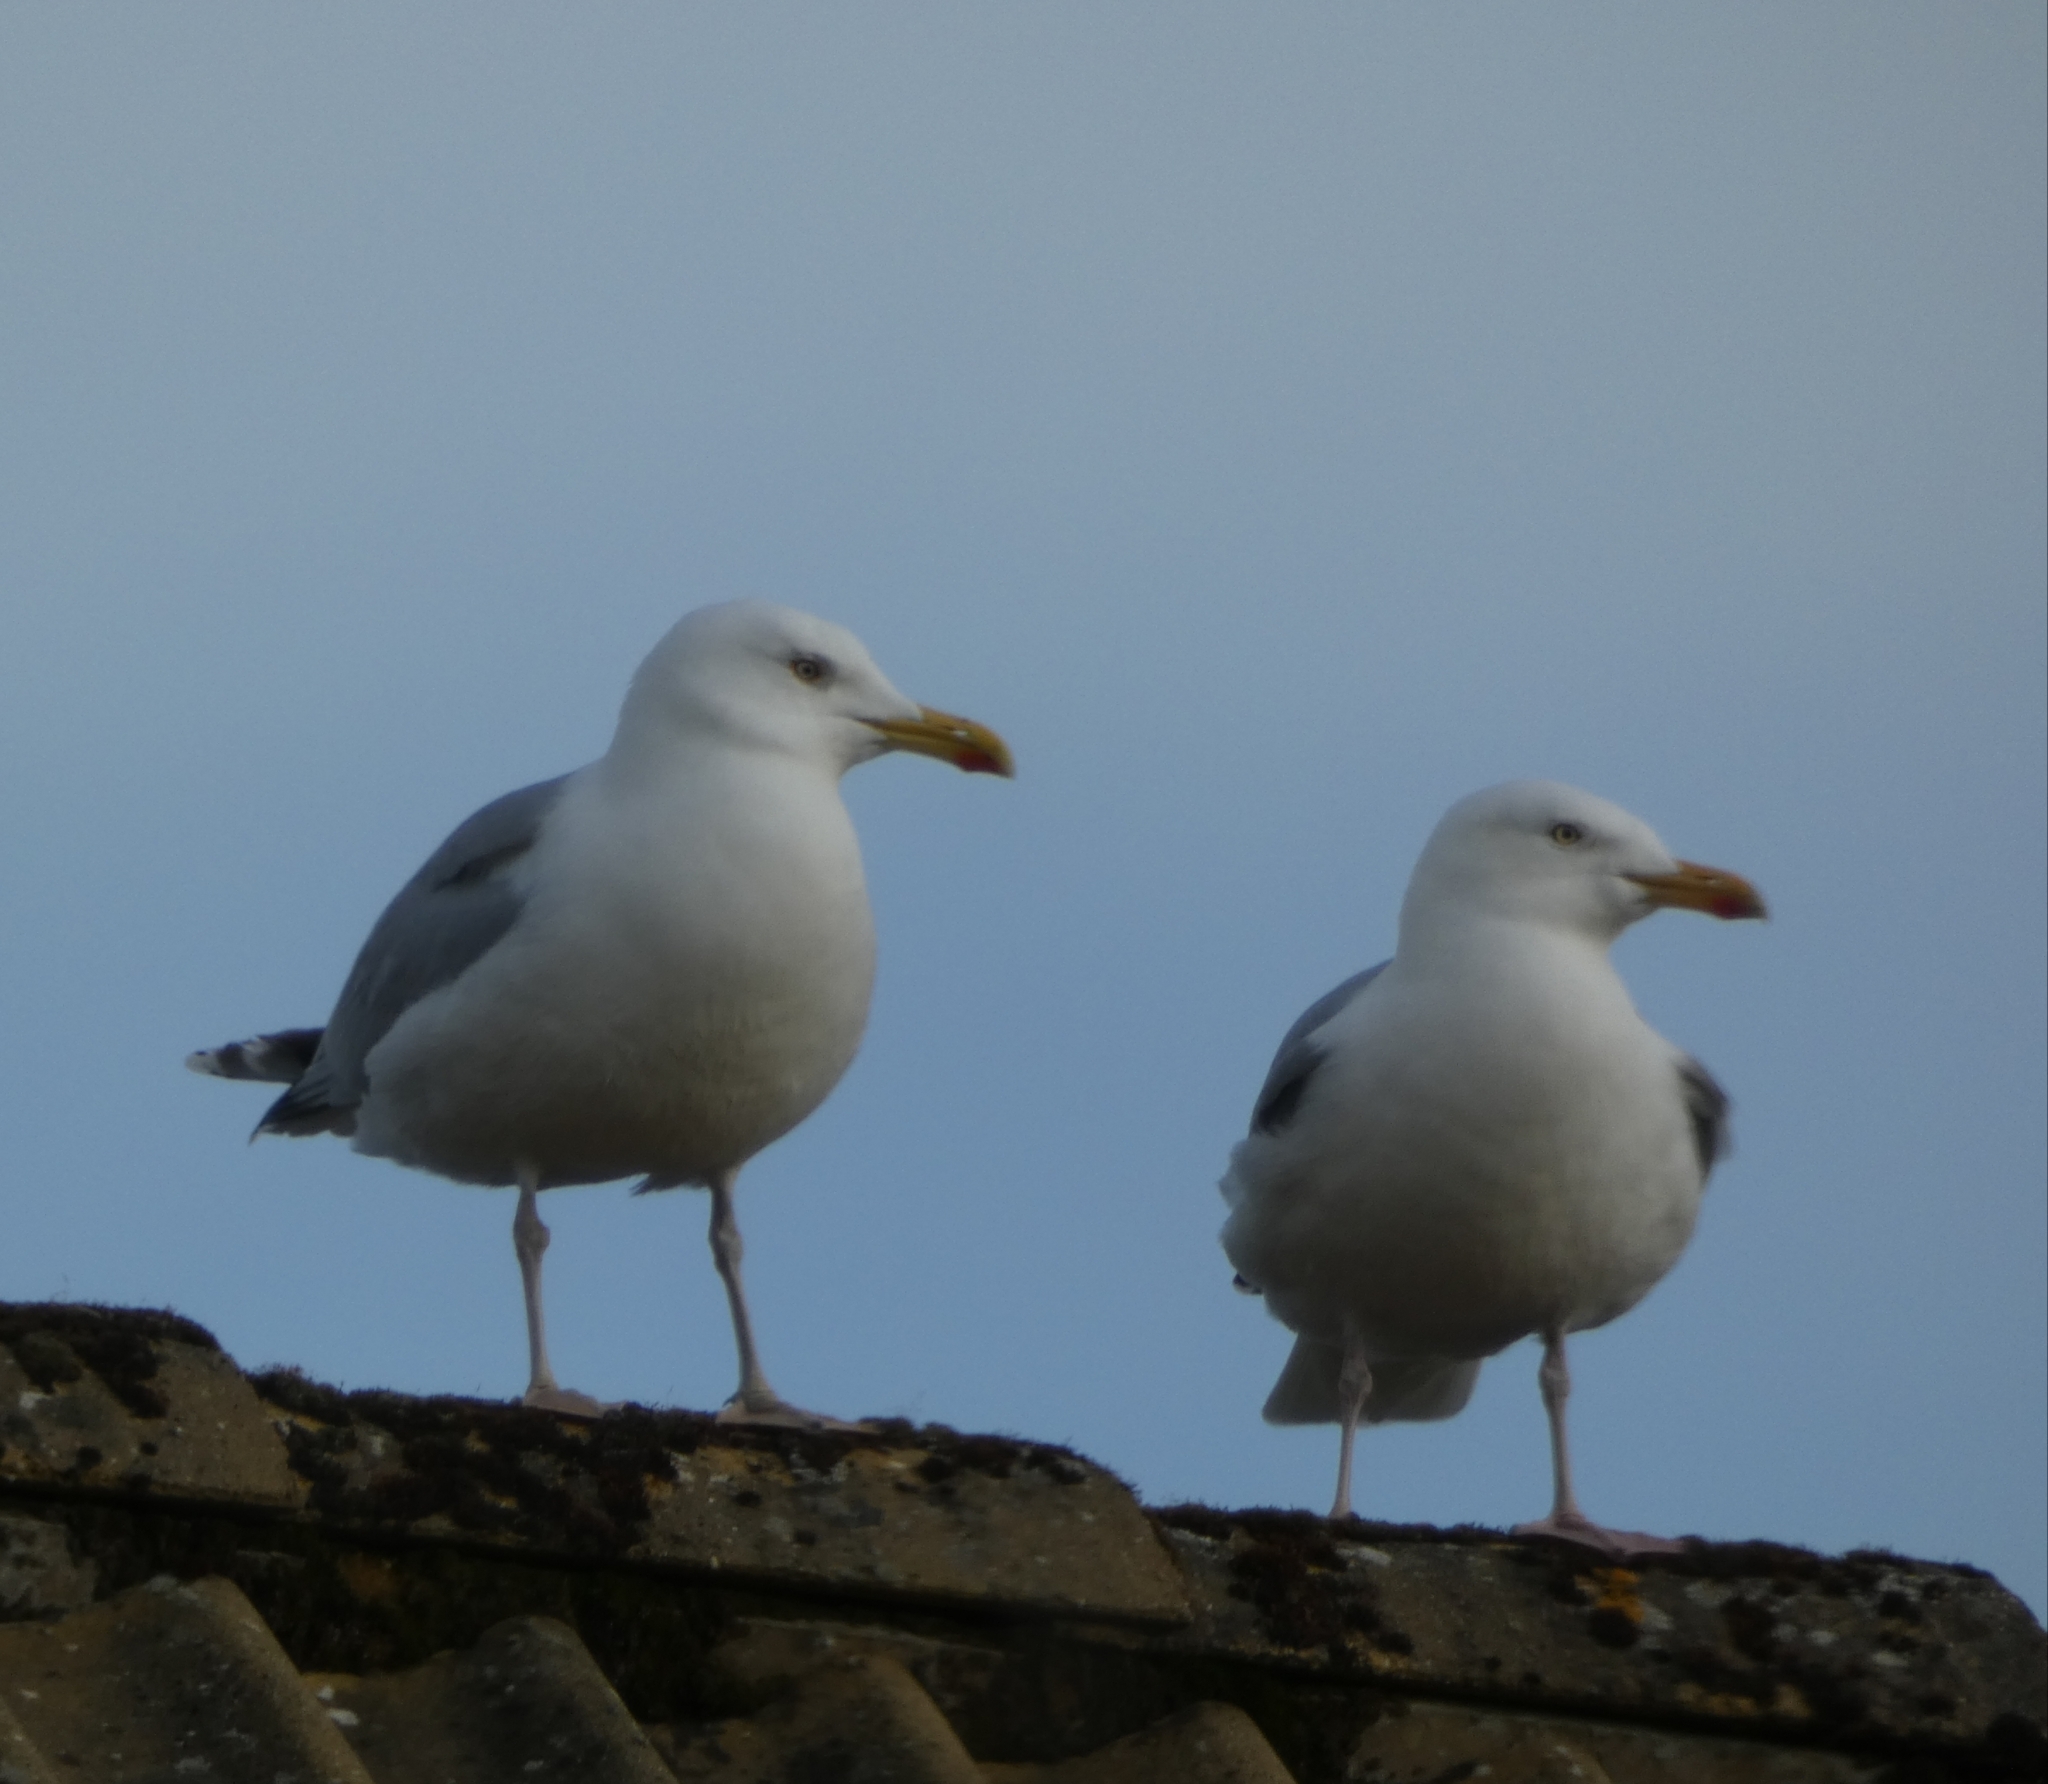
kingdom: Animalia
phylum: Chordata
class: Aves
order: Charadriiformes
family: Laridae
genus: Larus
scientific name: Larus argentatus
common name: Herring gull
